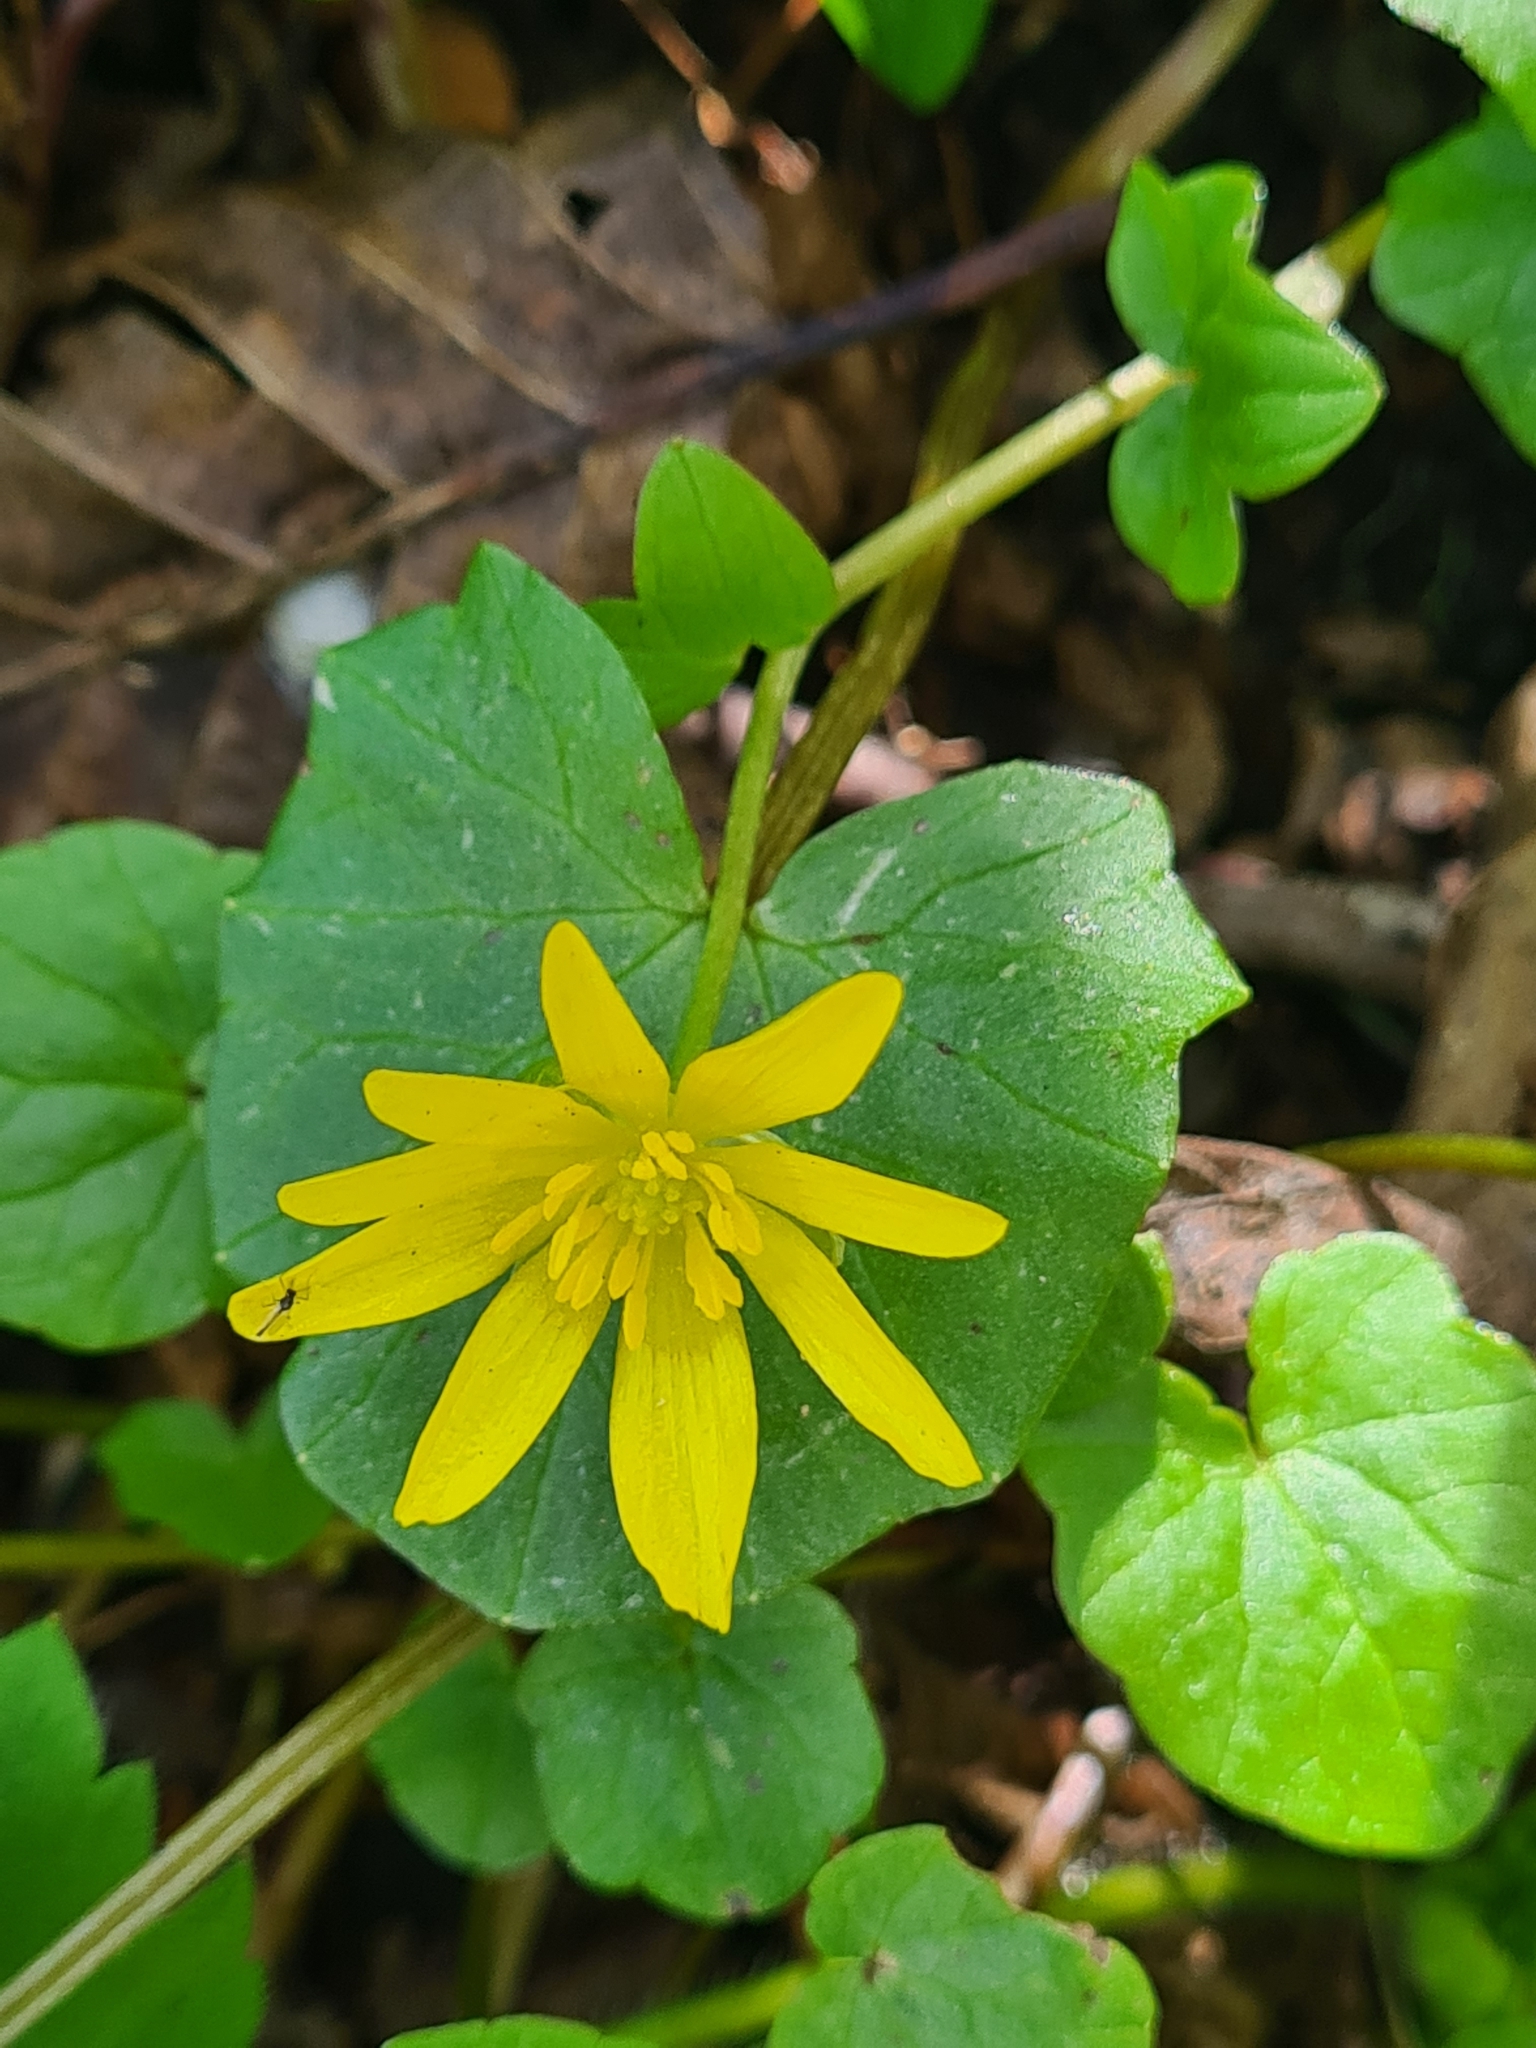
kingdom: Plantae
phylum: Tracheophyta
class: Magnoliopsida
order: Ranunculales
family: Ranunculaceae
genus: Ficaria
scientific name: Ficaria verna
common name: Lesser celandine
